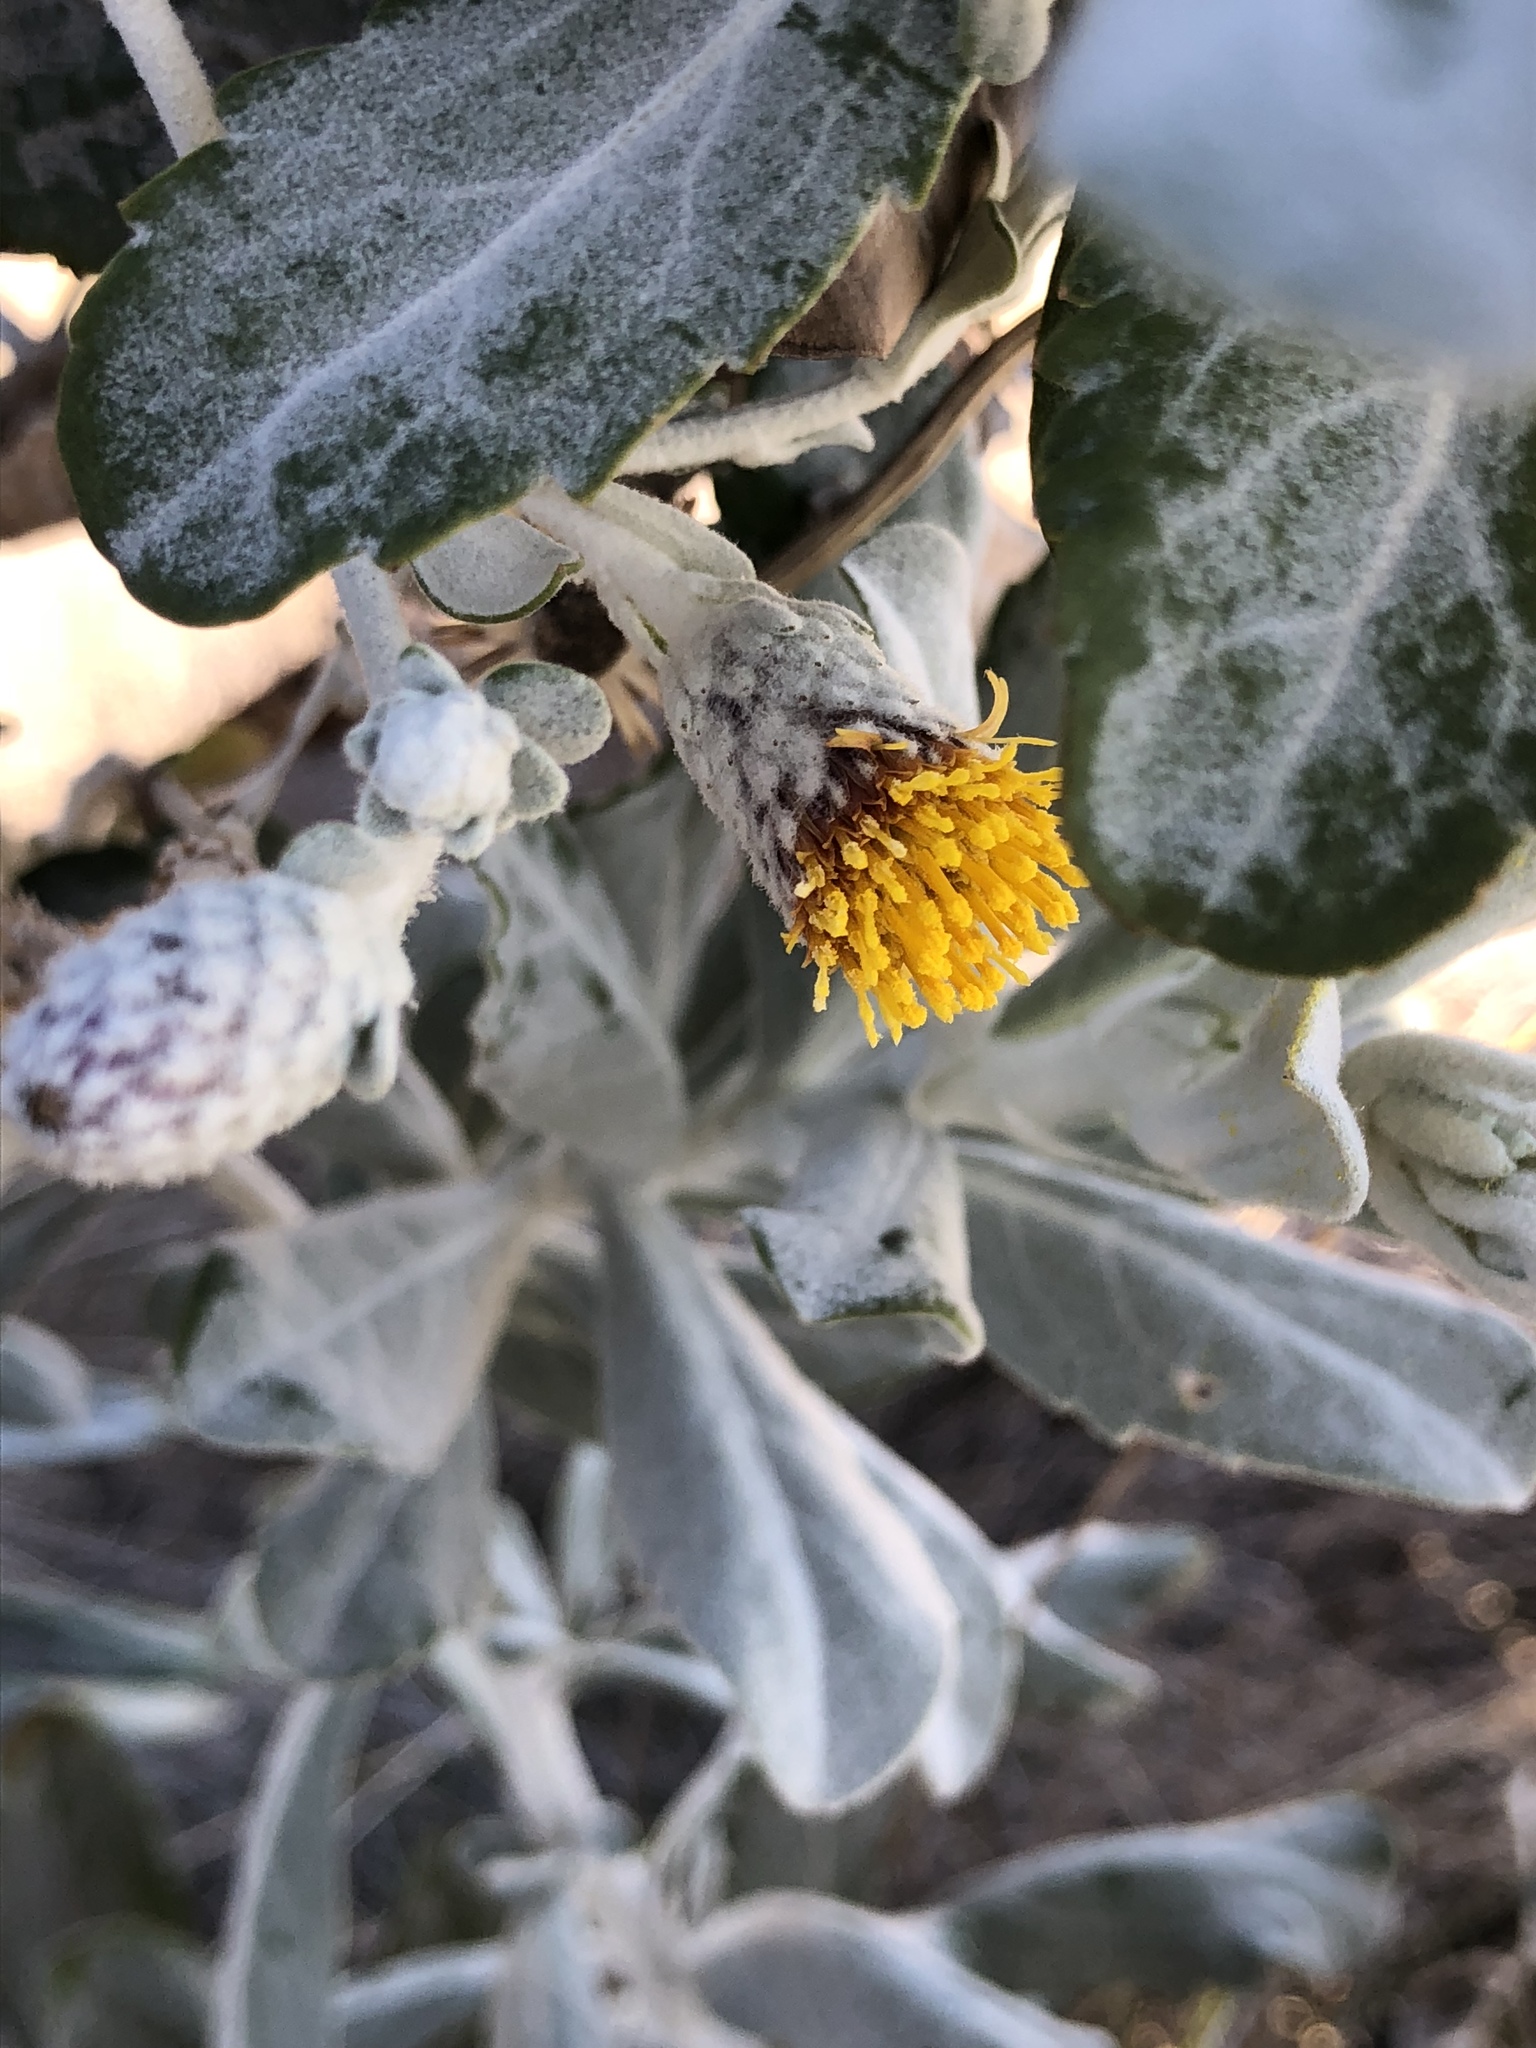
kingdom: Plantae
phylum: Tracheophyta
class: Magnoliopsida
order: Asterales
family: Asteraceae
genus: Hazardia
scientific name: Hazardia detonsa
